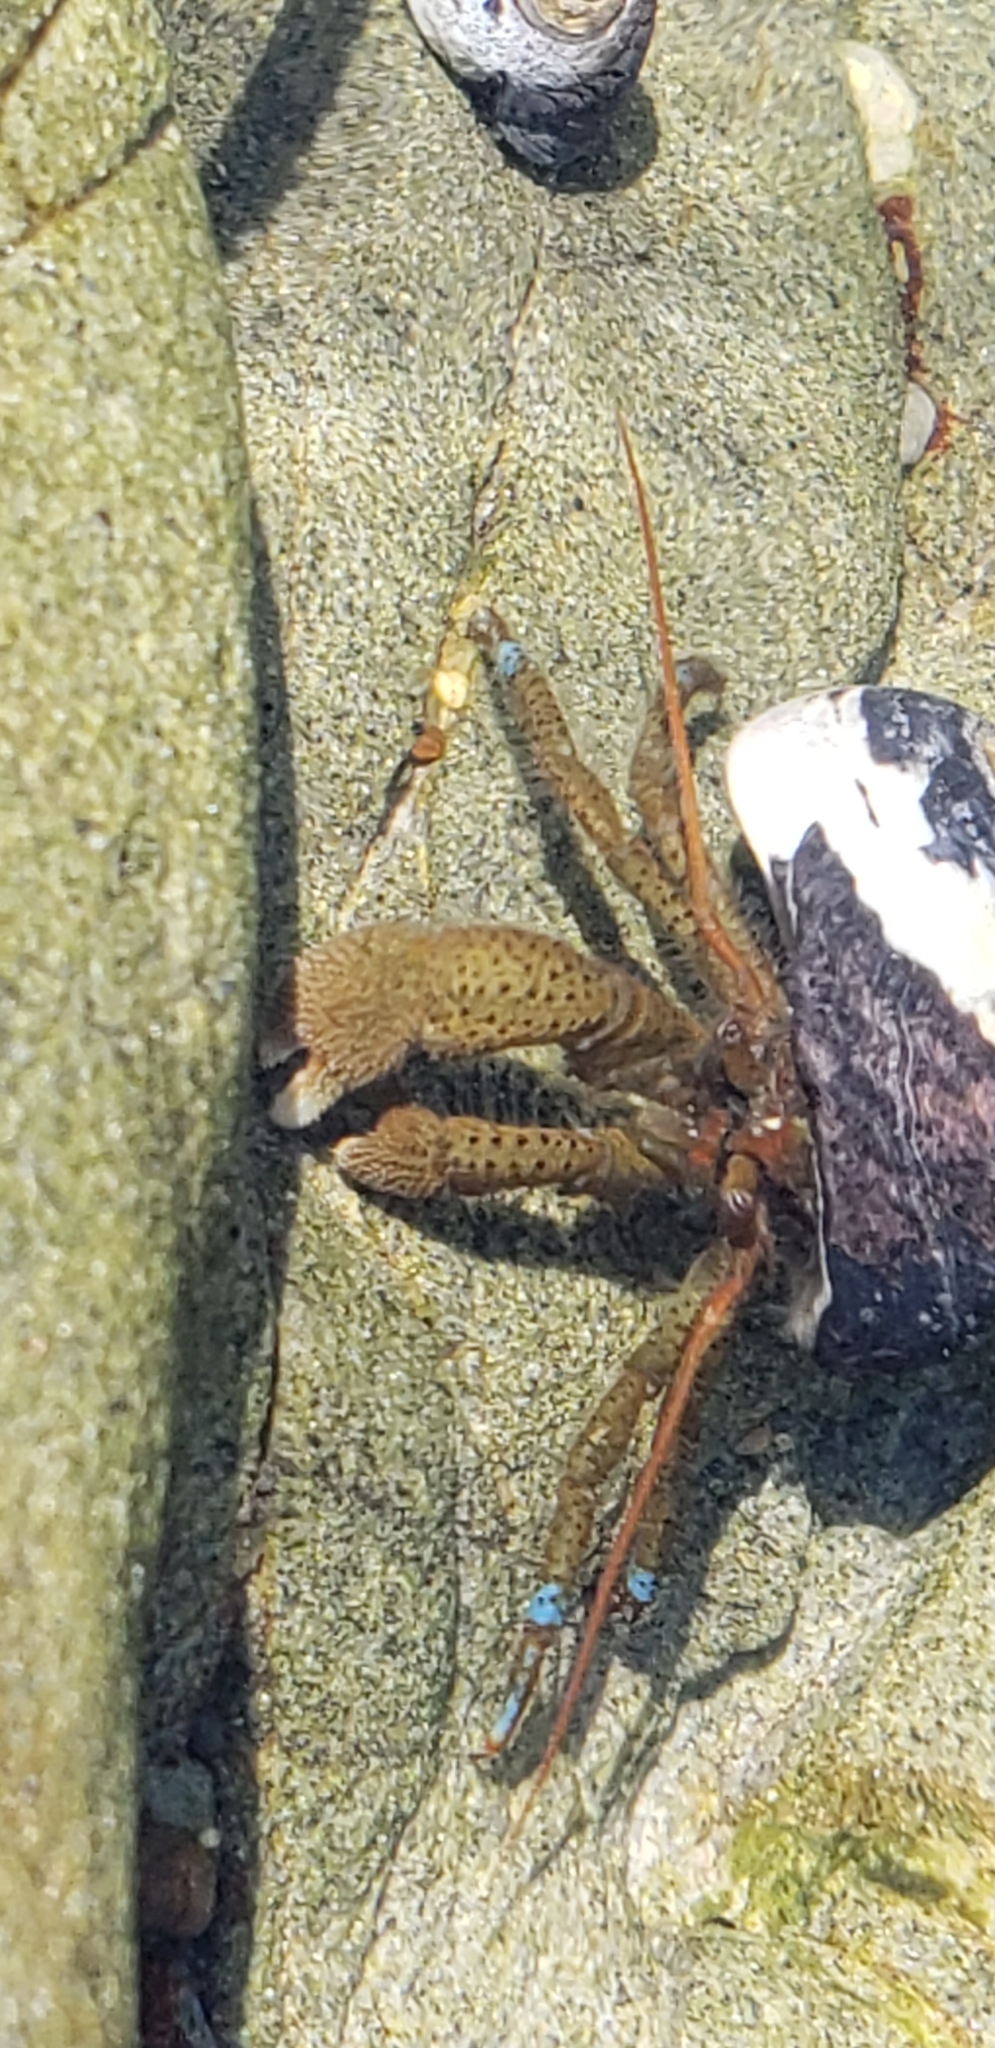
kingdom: Animalia
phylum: Arthropoda
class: Malacostraca
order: Decapoda
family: Paguridae
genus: Pagurus
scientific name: Pagurus samuelis
